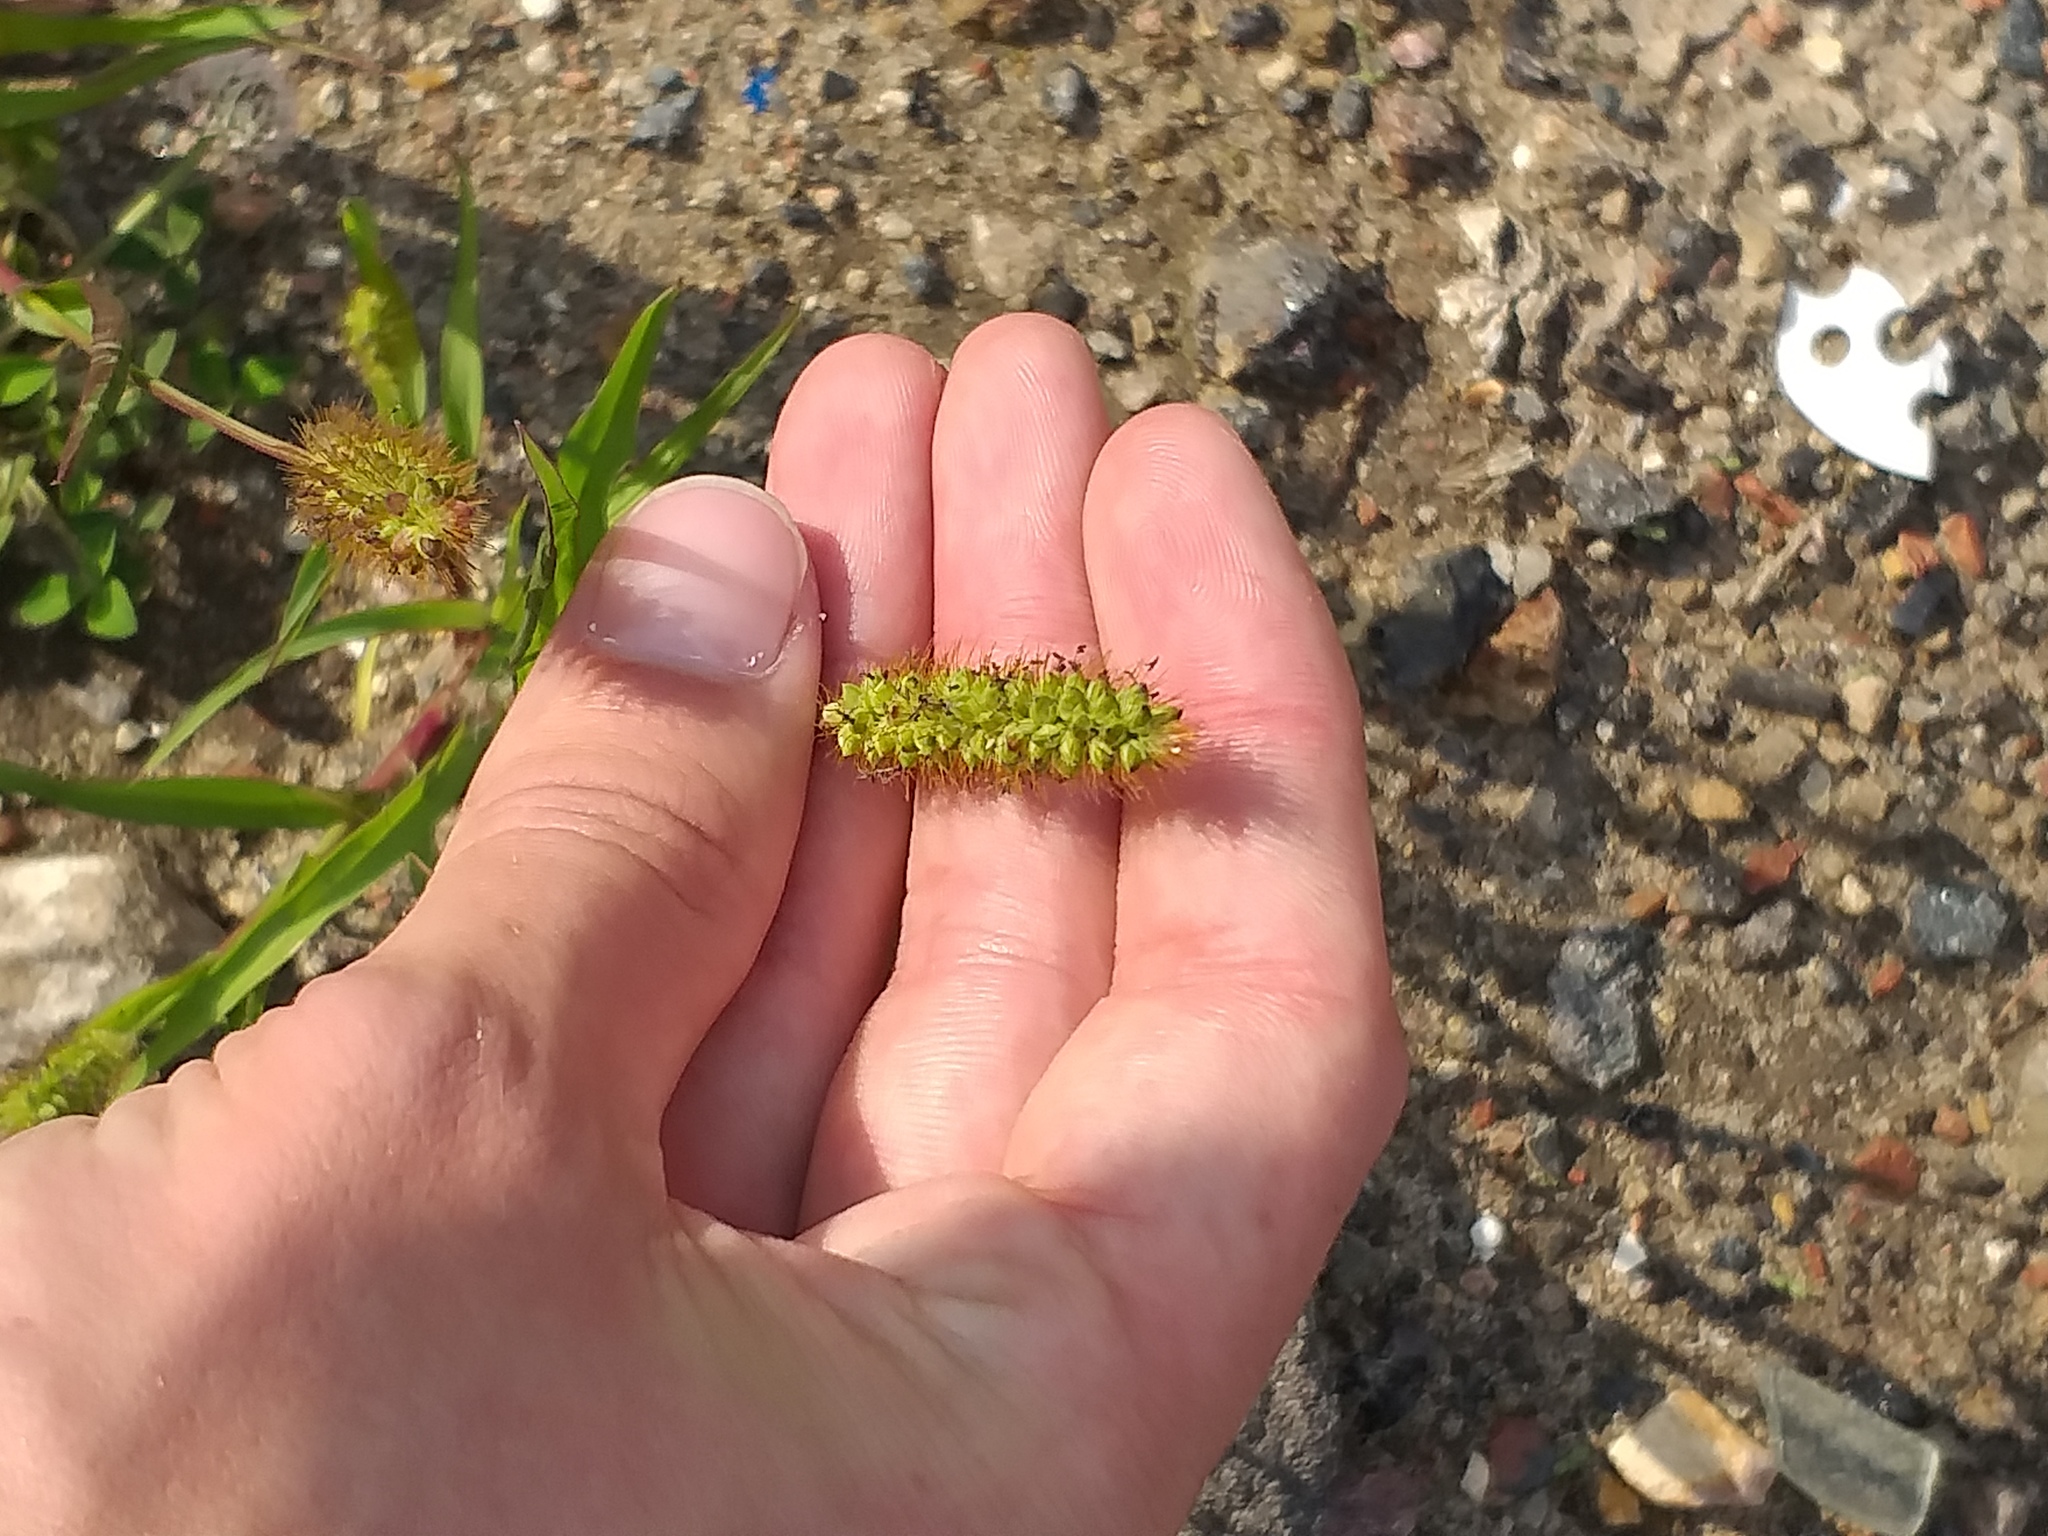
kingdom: Plantae
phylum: Tracheophyta
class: Liliopsida
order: Poales
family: Poaceae
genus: Setaria
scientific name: Setaria pumila
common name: Yellow bristle-grass
